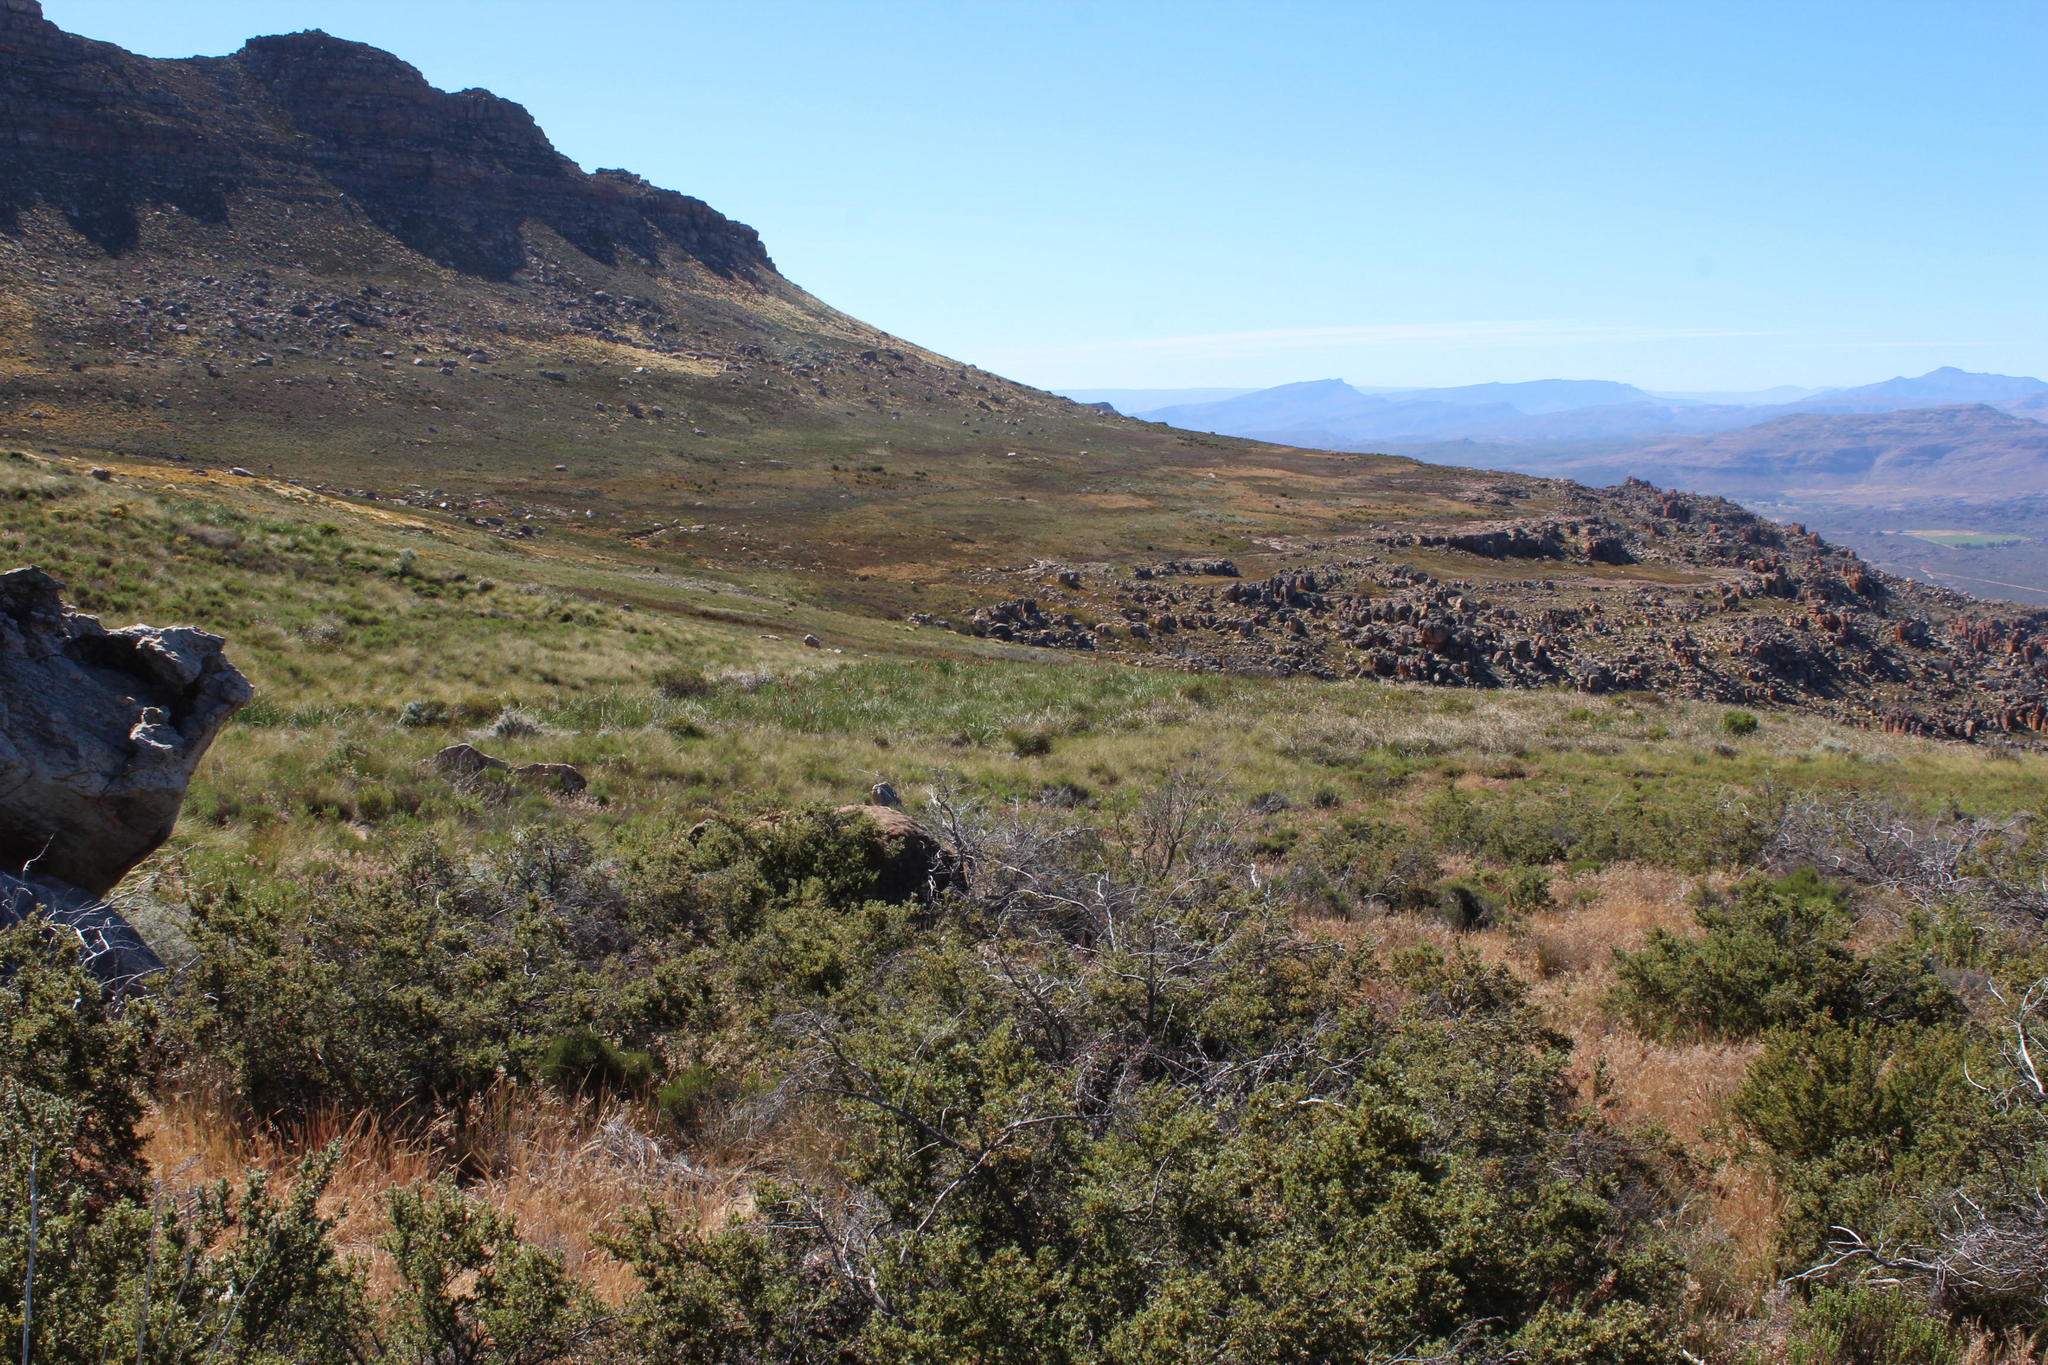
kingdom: Plantae
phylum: Tracheophyta
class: Magnoliopsida
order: Rosales
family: Rosaceae
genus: Cliffortia
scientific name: Cliffortia ruscifolia
